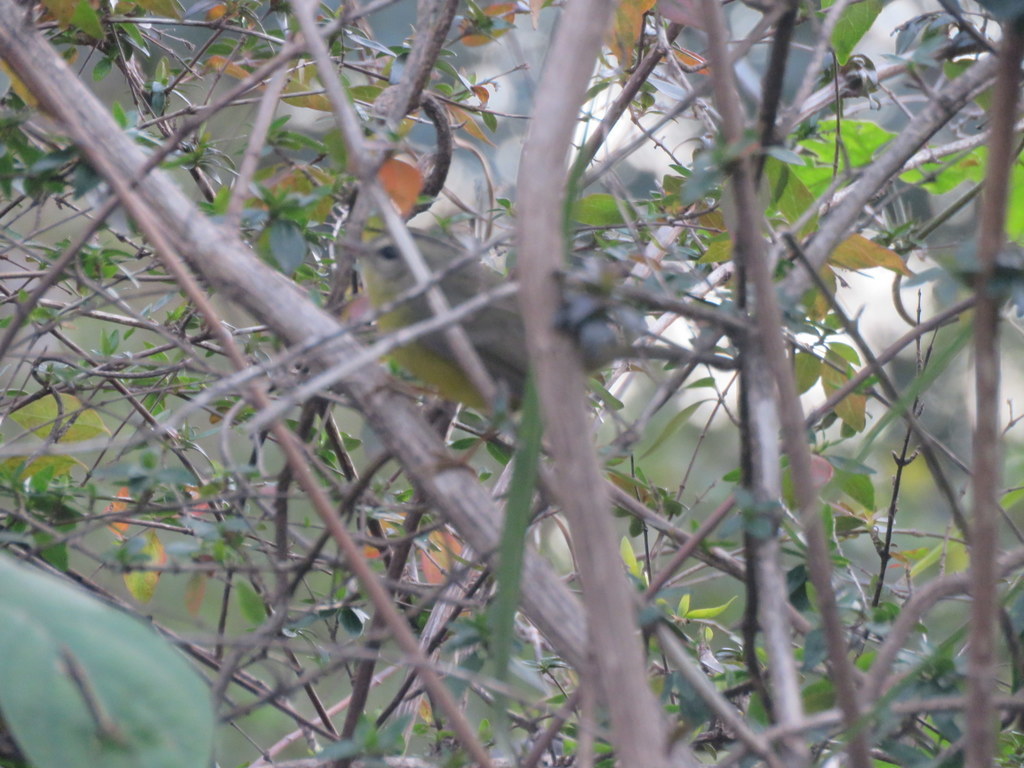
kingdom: Animalia
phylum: Chordata
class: Aves
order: Passeriformes
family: Parulidae
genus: Basileuterus
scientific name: Basileuterus culicivorus
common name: Golden-crowned warbler
